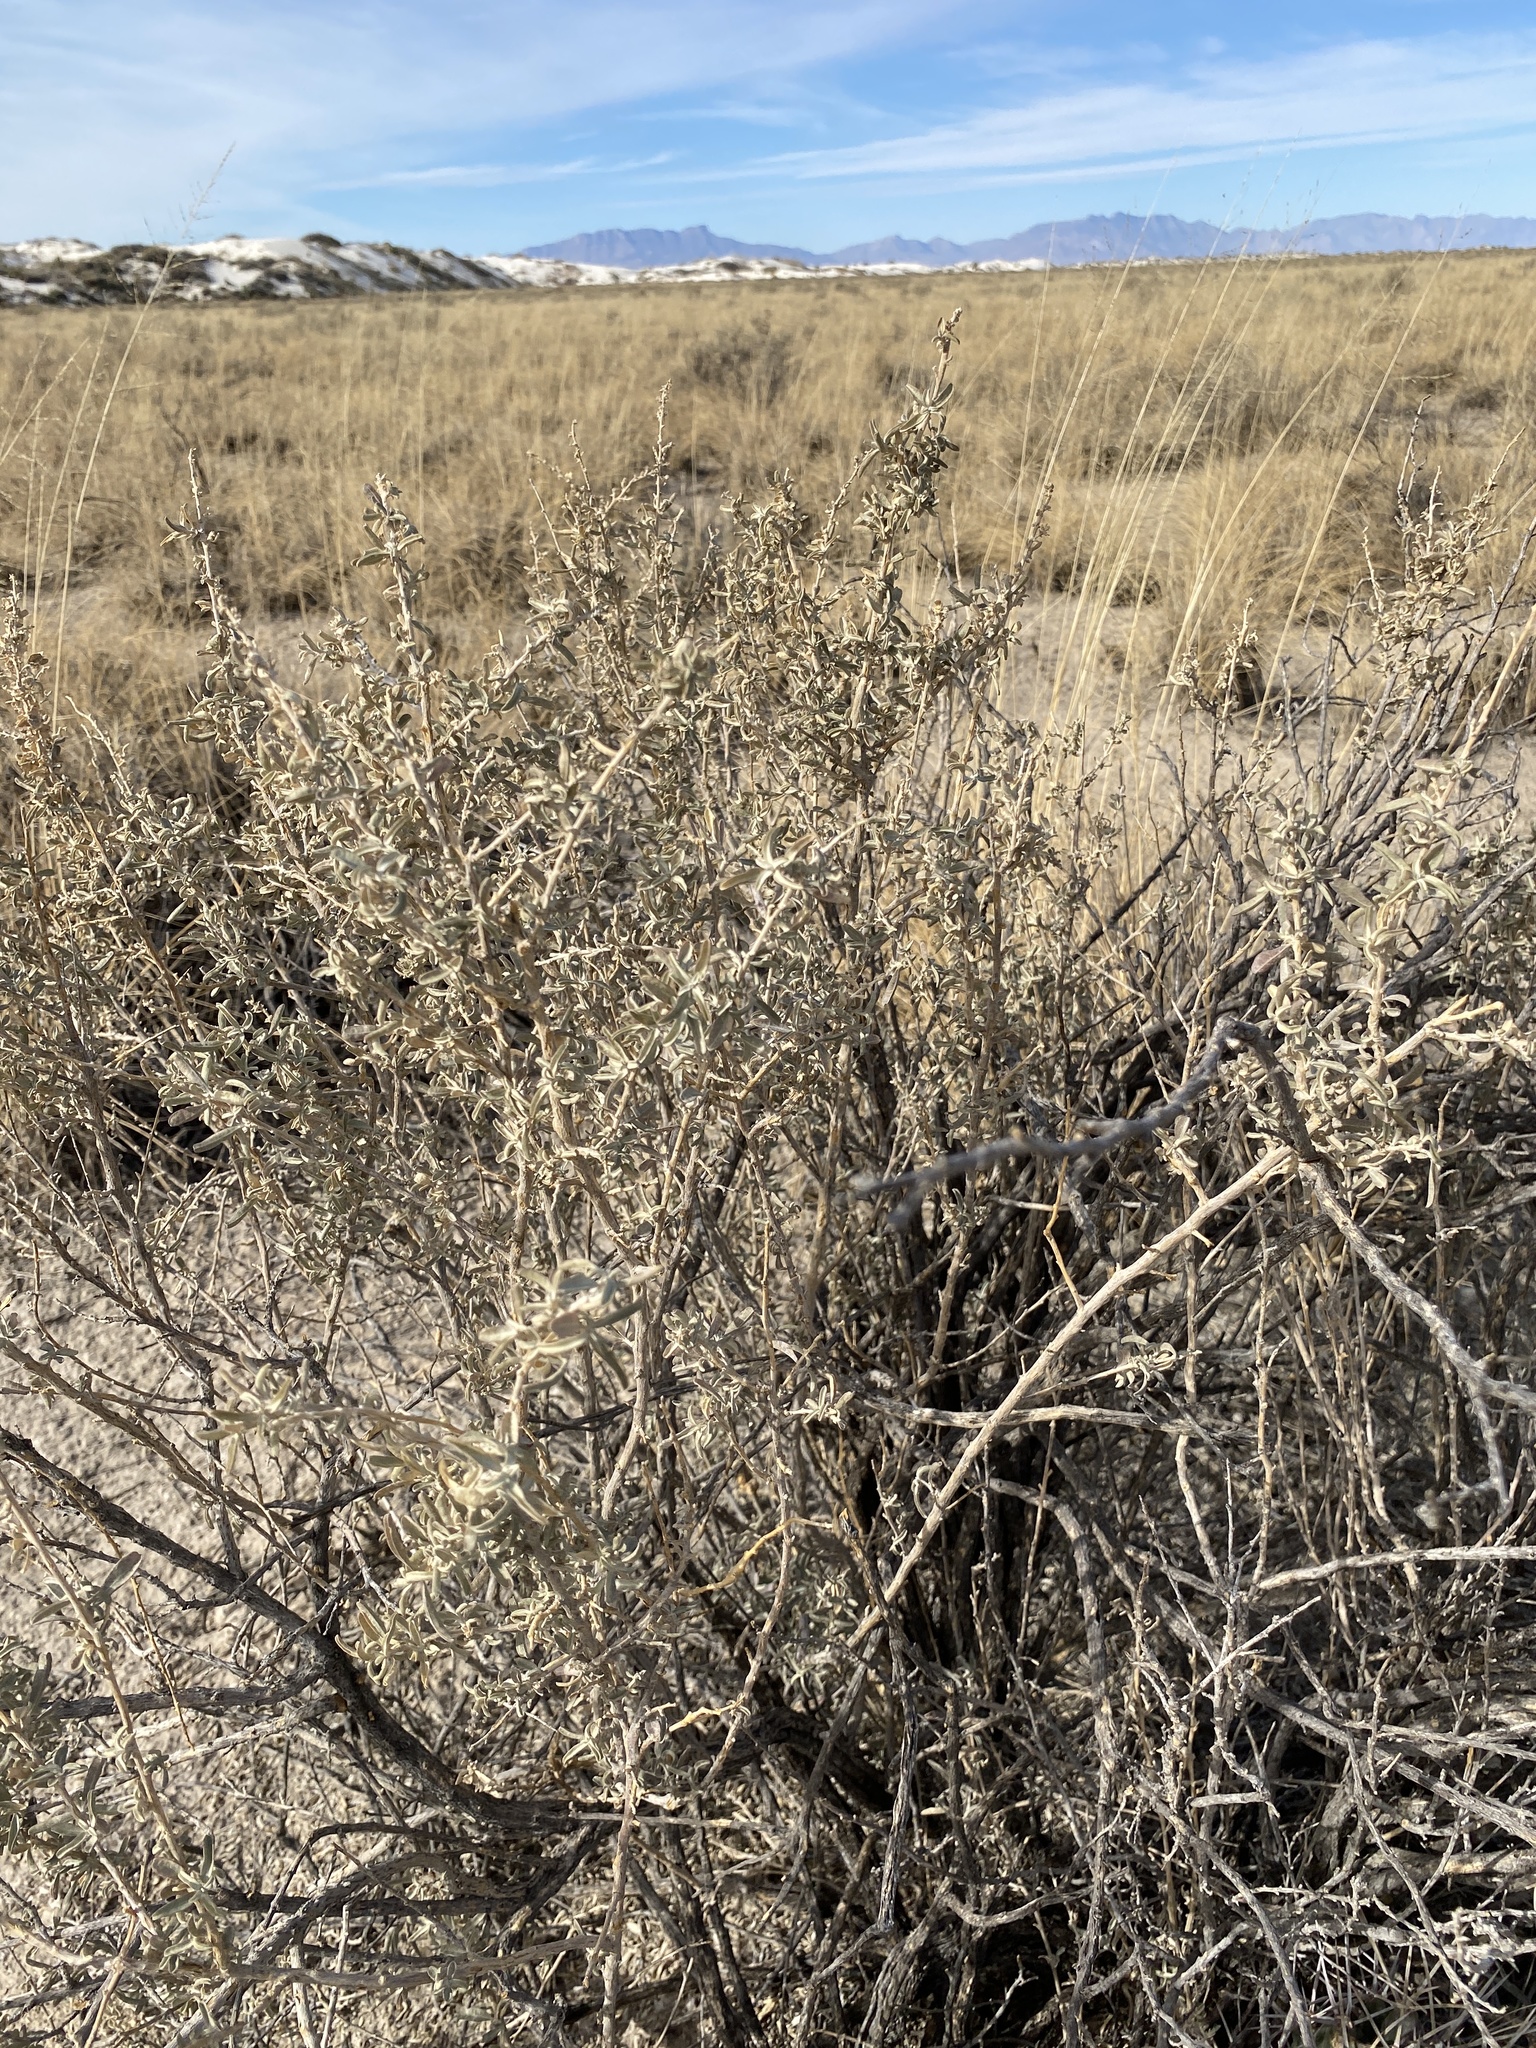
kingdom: Plantae
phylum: Tracheophyta
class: Magnoliopsida
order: Caryophyllales
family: Amaranthaceae
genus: Atriplex
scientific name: Atriplex canescens
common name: Four-wing saltbush
